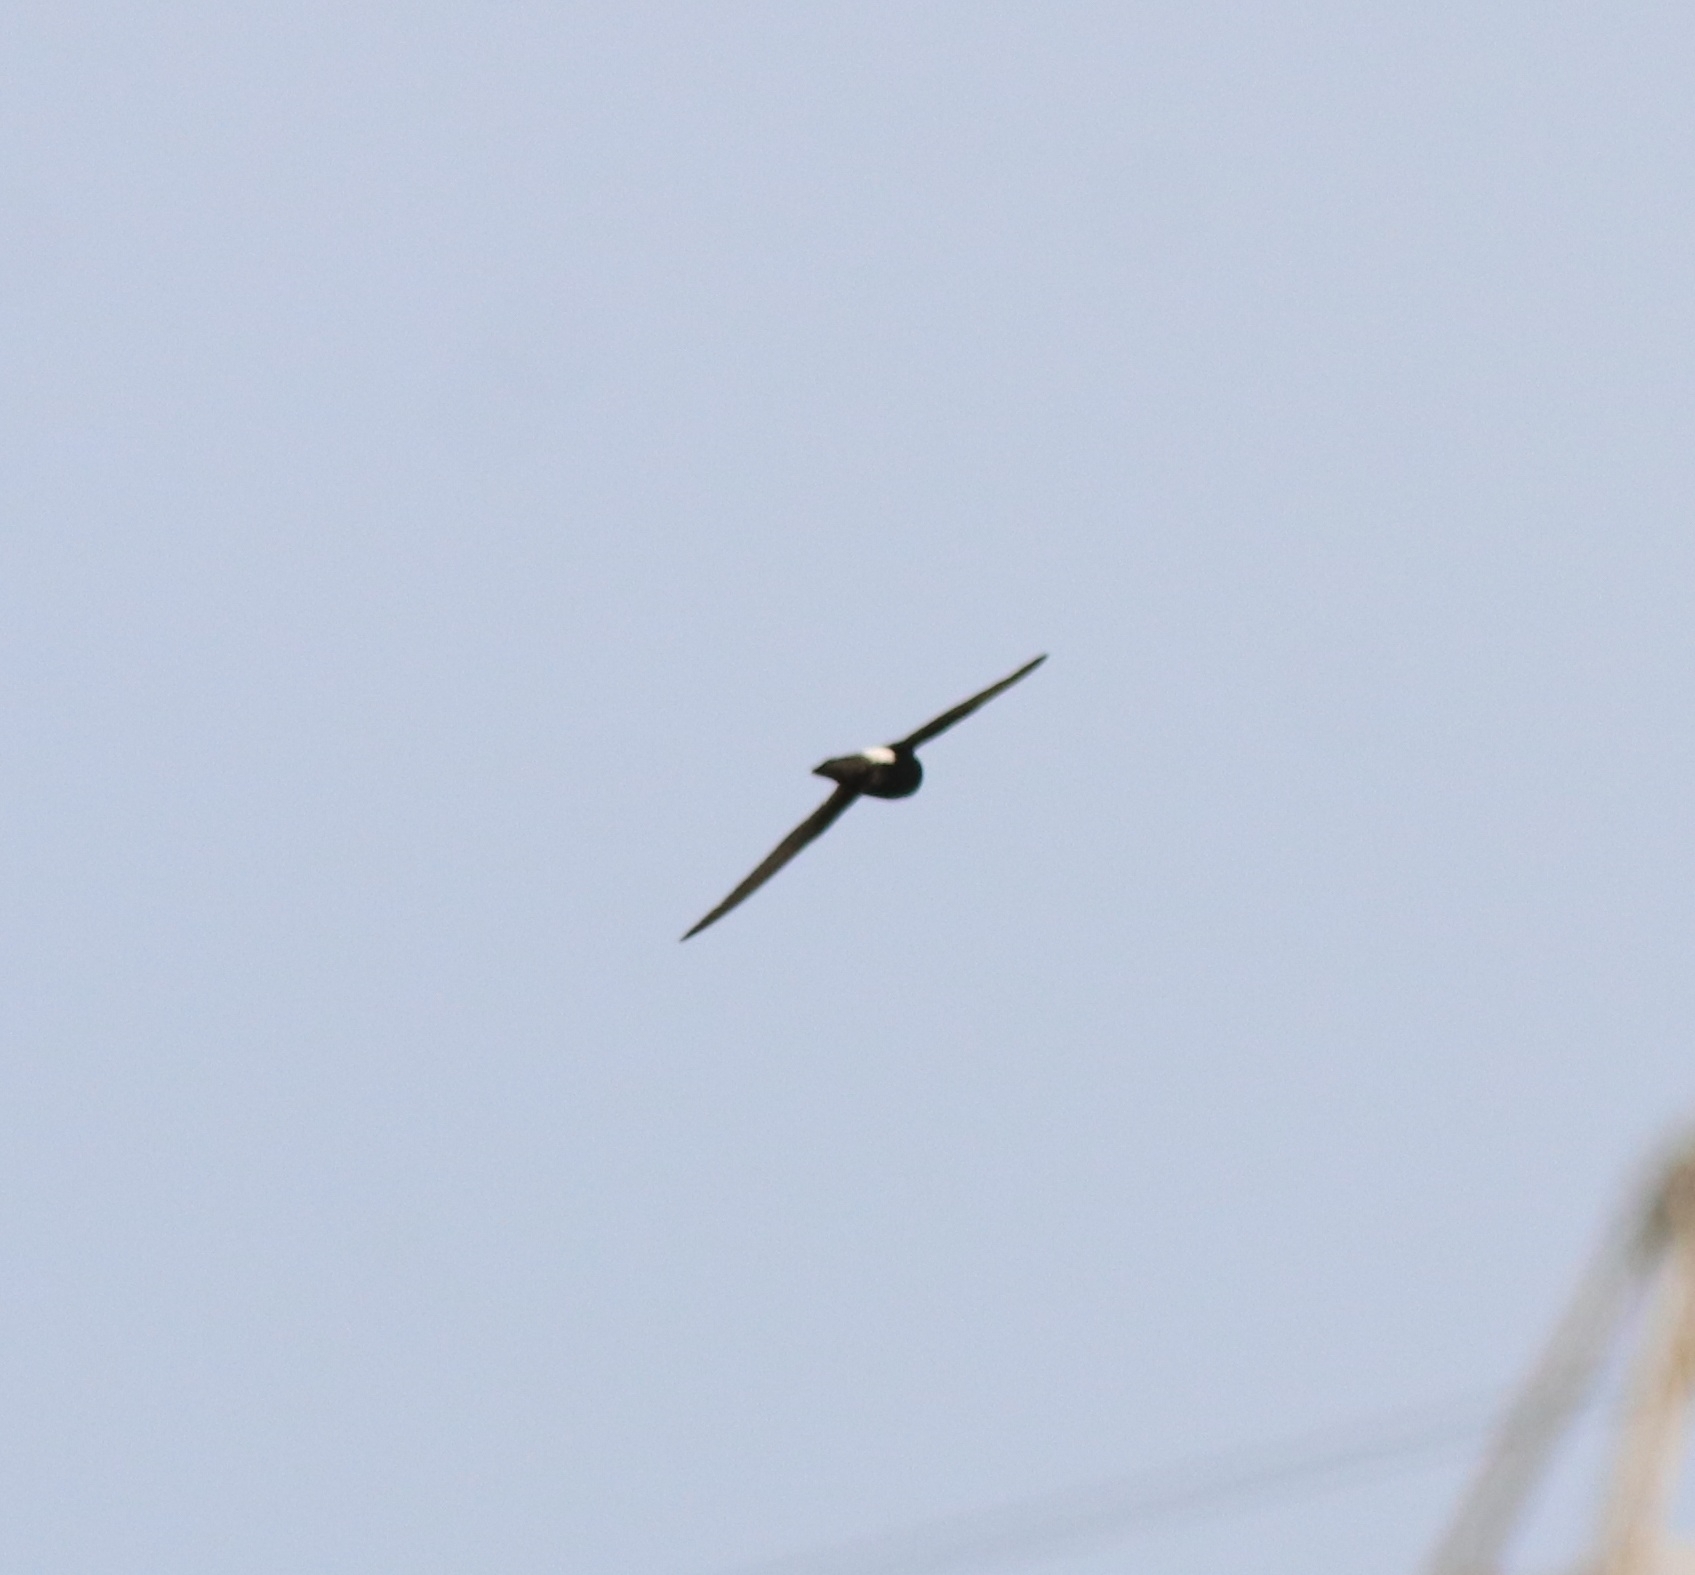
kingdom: Animalia
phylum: Chordata
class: Aves
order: Apodiformes
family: Apodidae
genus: Apus
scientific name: Apus affinis
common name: Little swift
